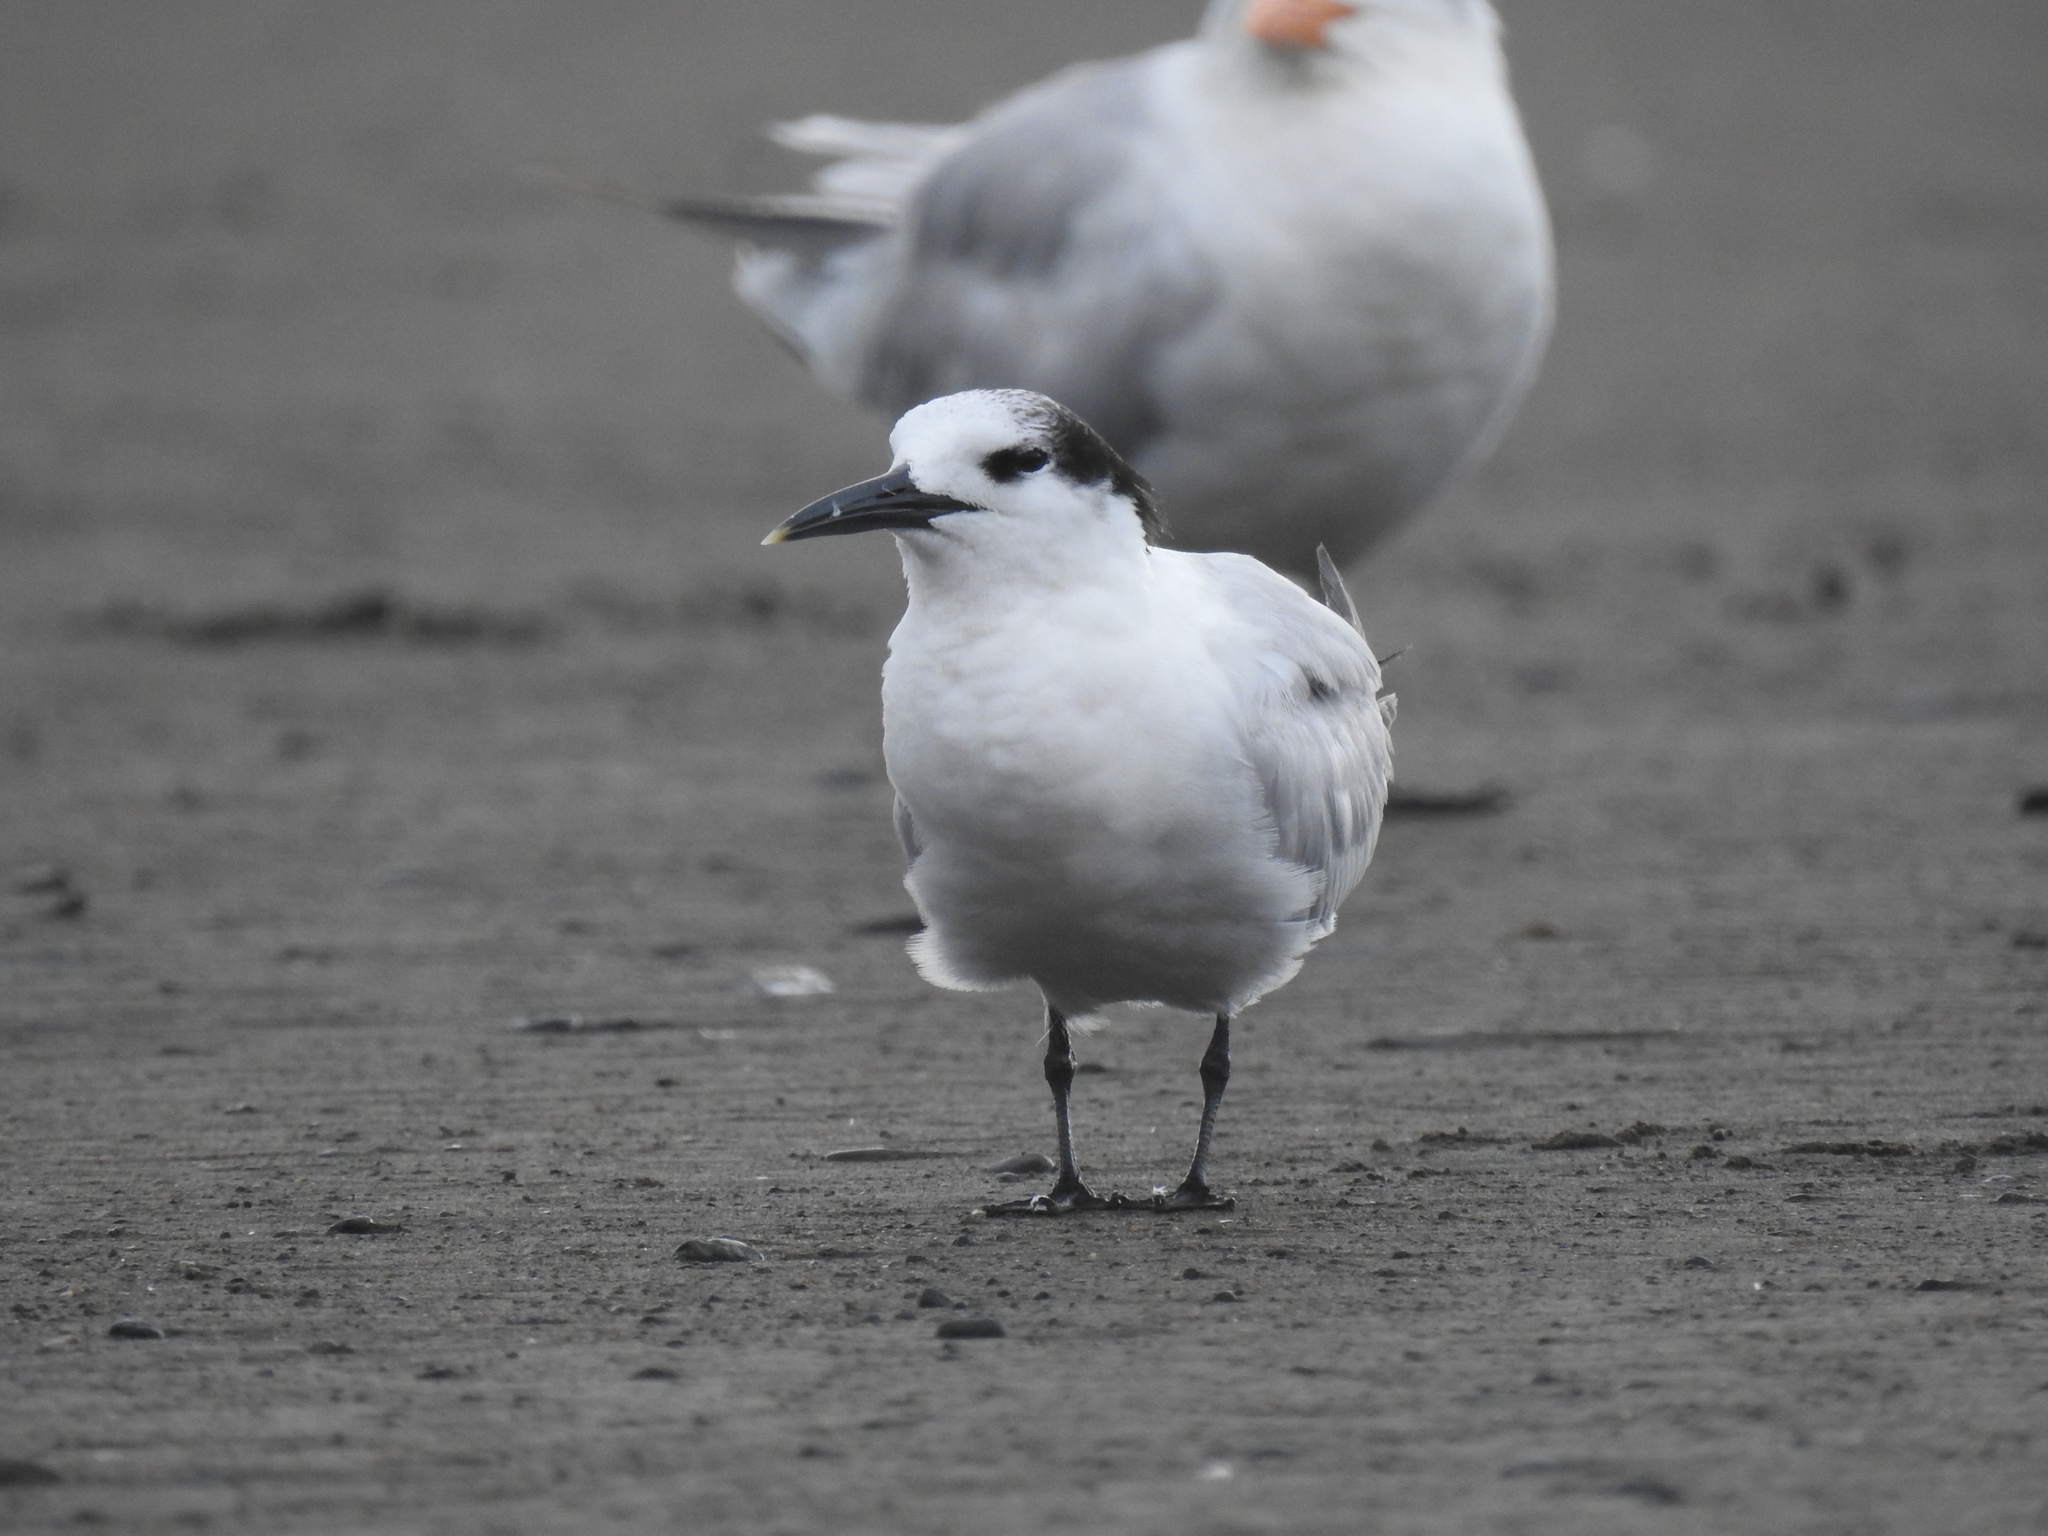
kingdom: Animalia
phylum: Chordata
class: Aves
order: Charadriiformes
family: Laridae
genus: Thalasseus
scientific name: Thalasseus sandvicensis
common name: Sandwich tern
